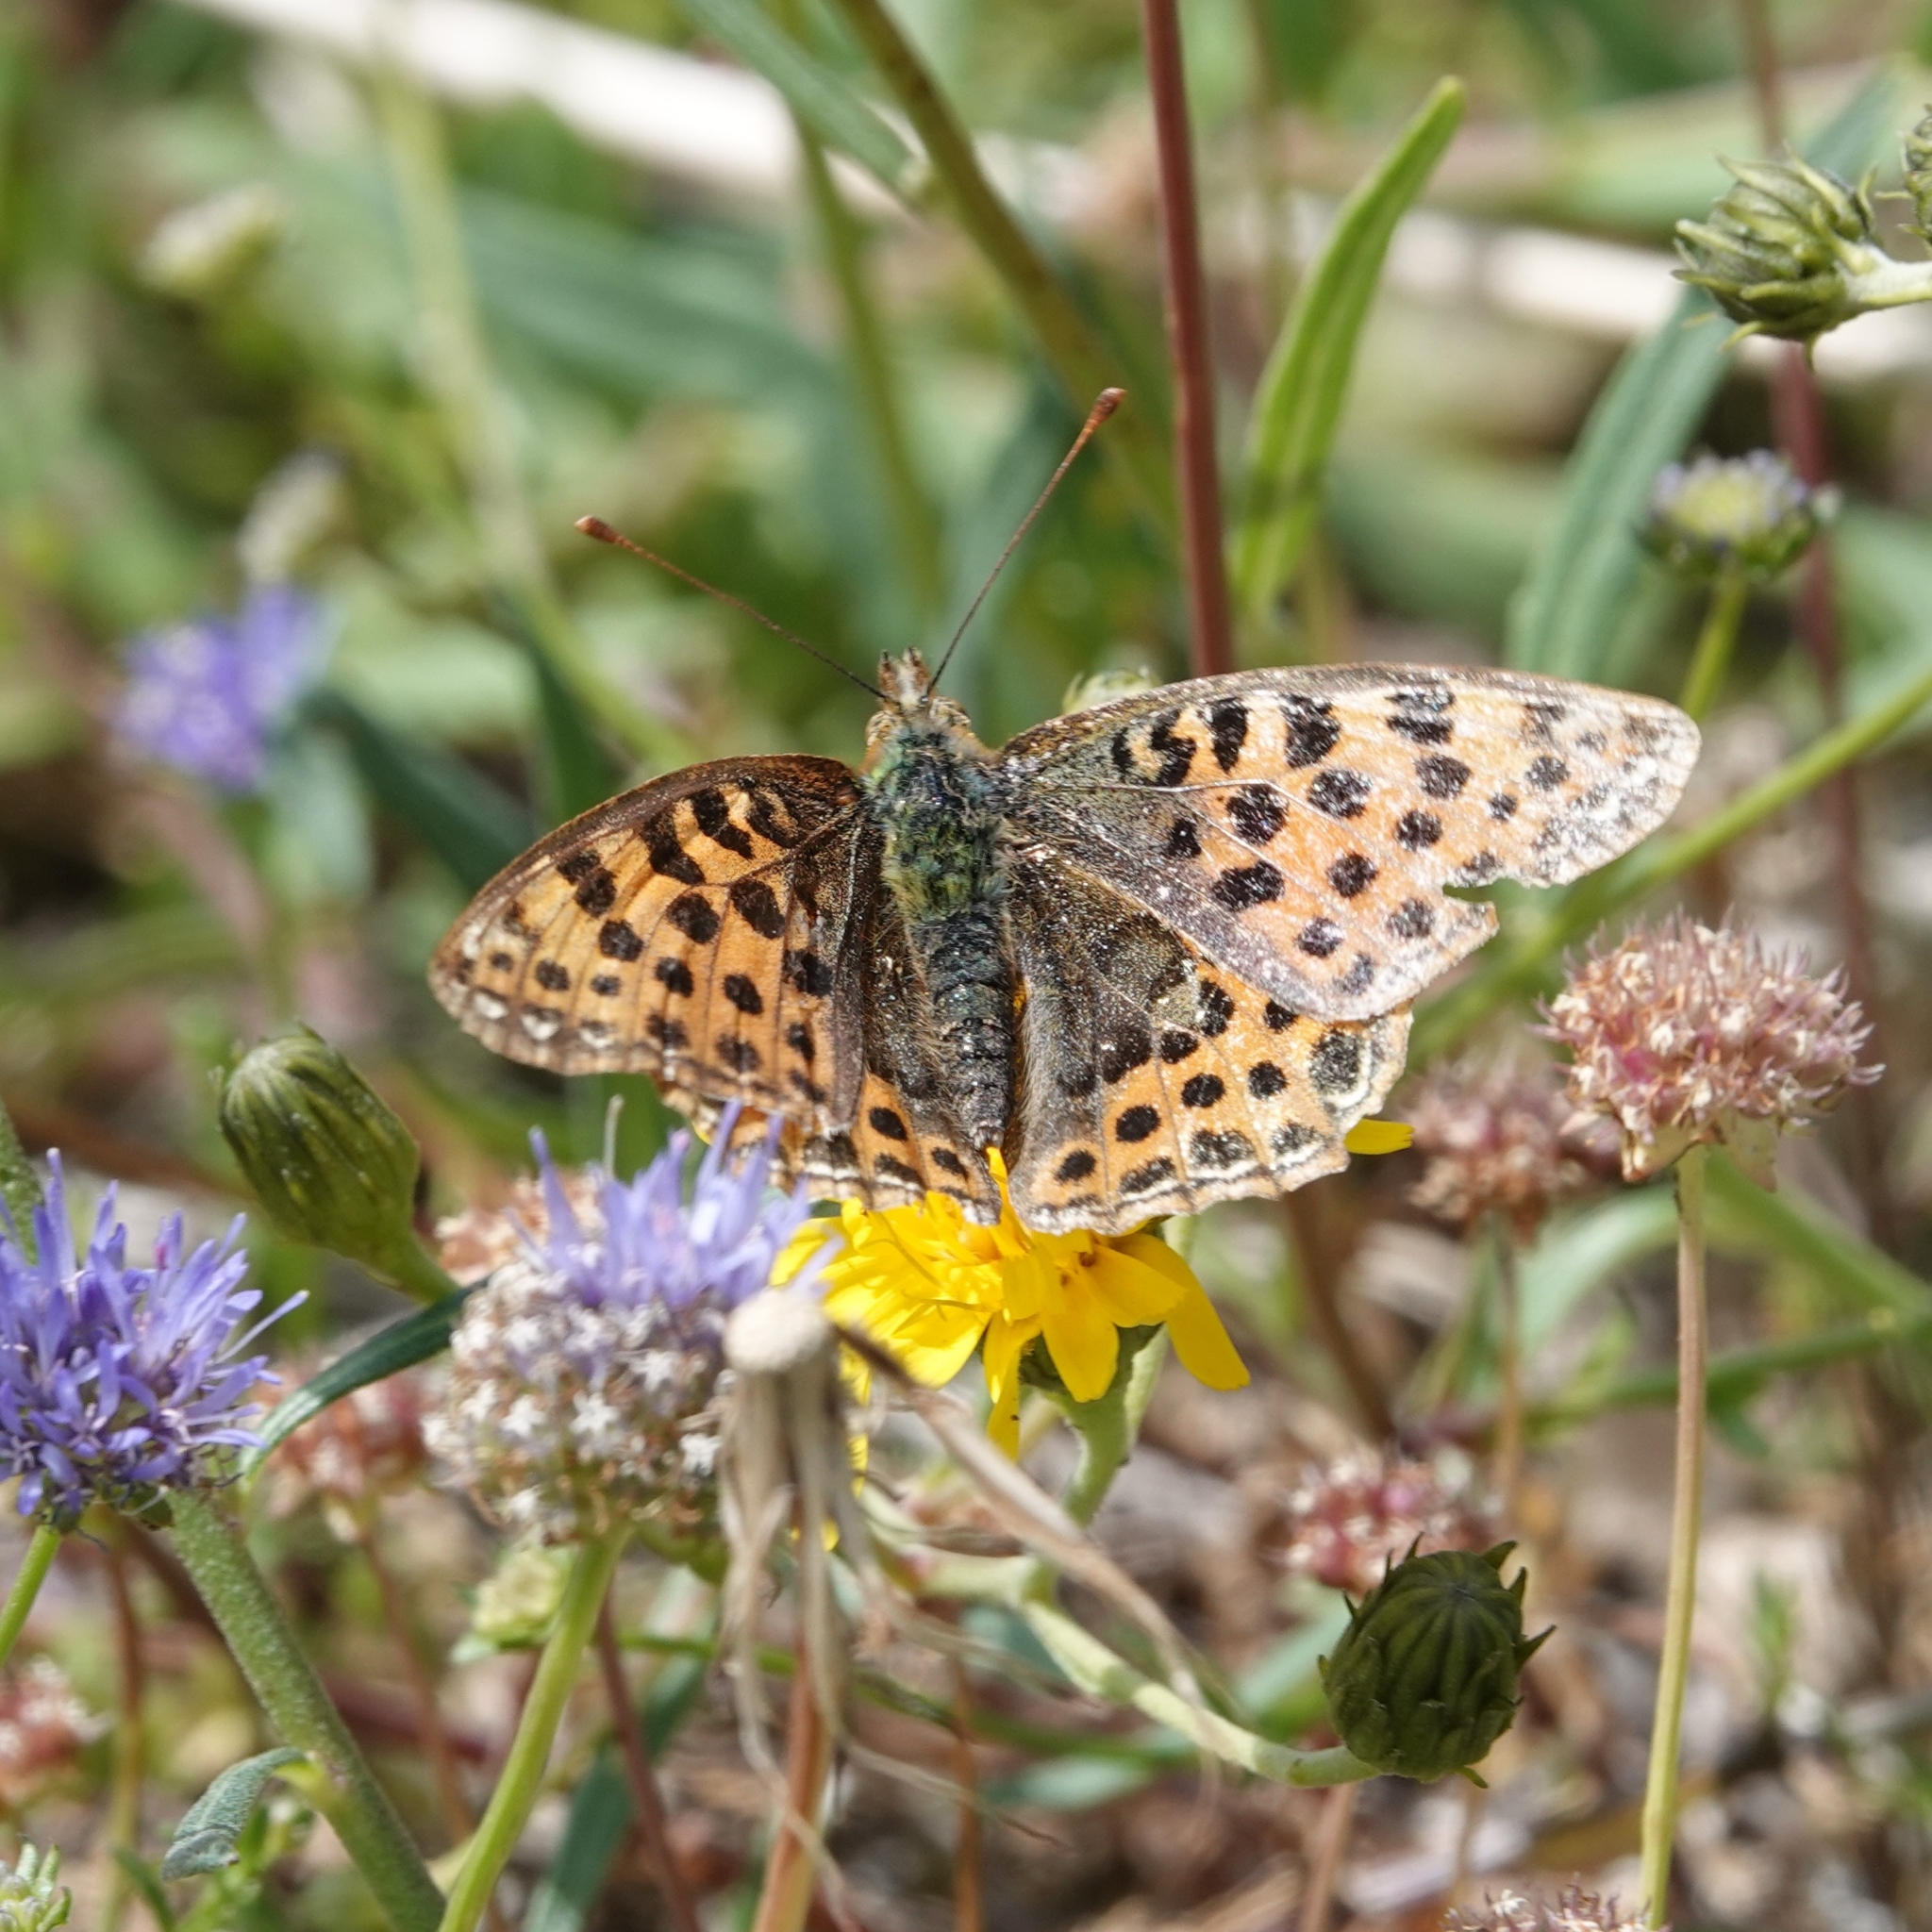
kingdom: Animalia
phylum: Arthropoda
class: Insecta
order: Lepidoptera
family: Nymphalidae
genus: Issoria
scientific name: Issoria lathonia
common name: Queen of spain fritillary
